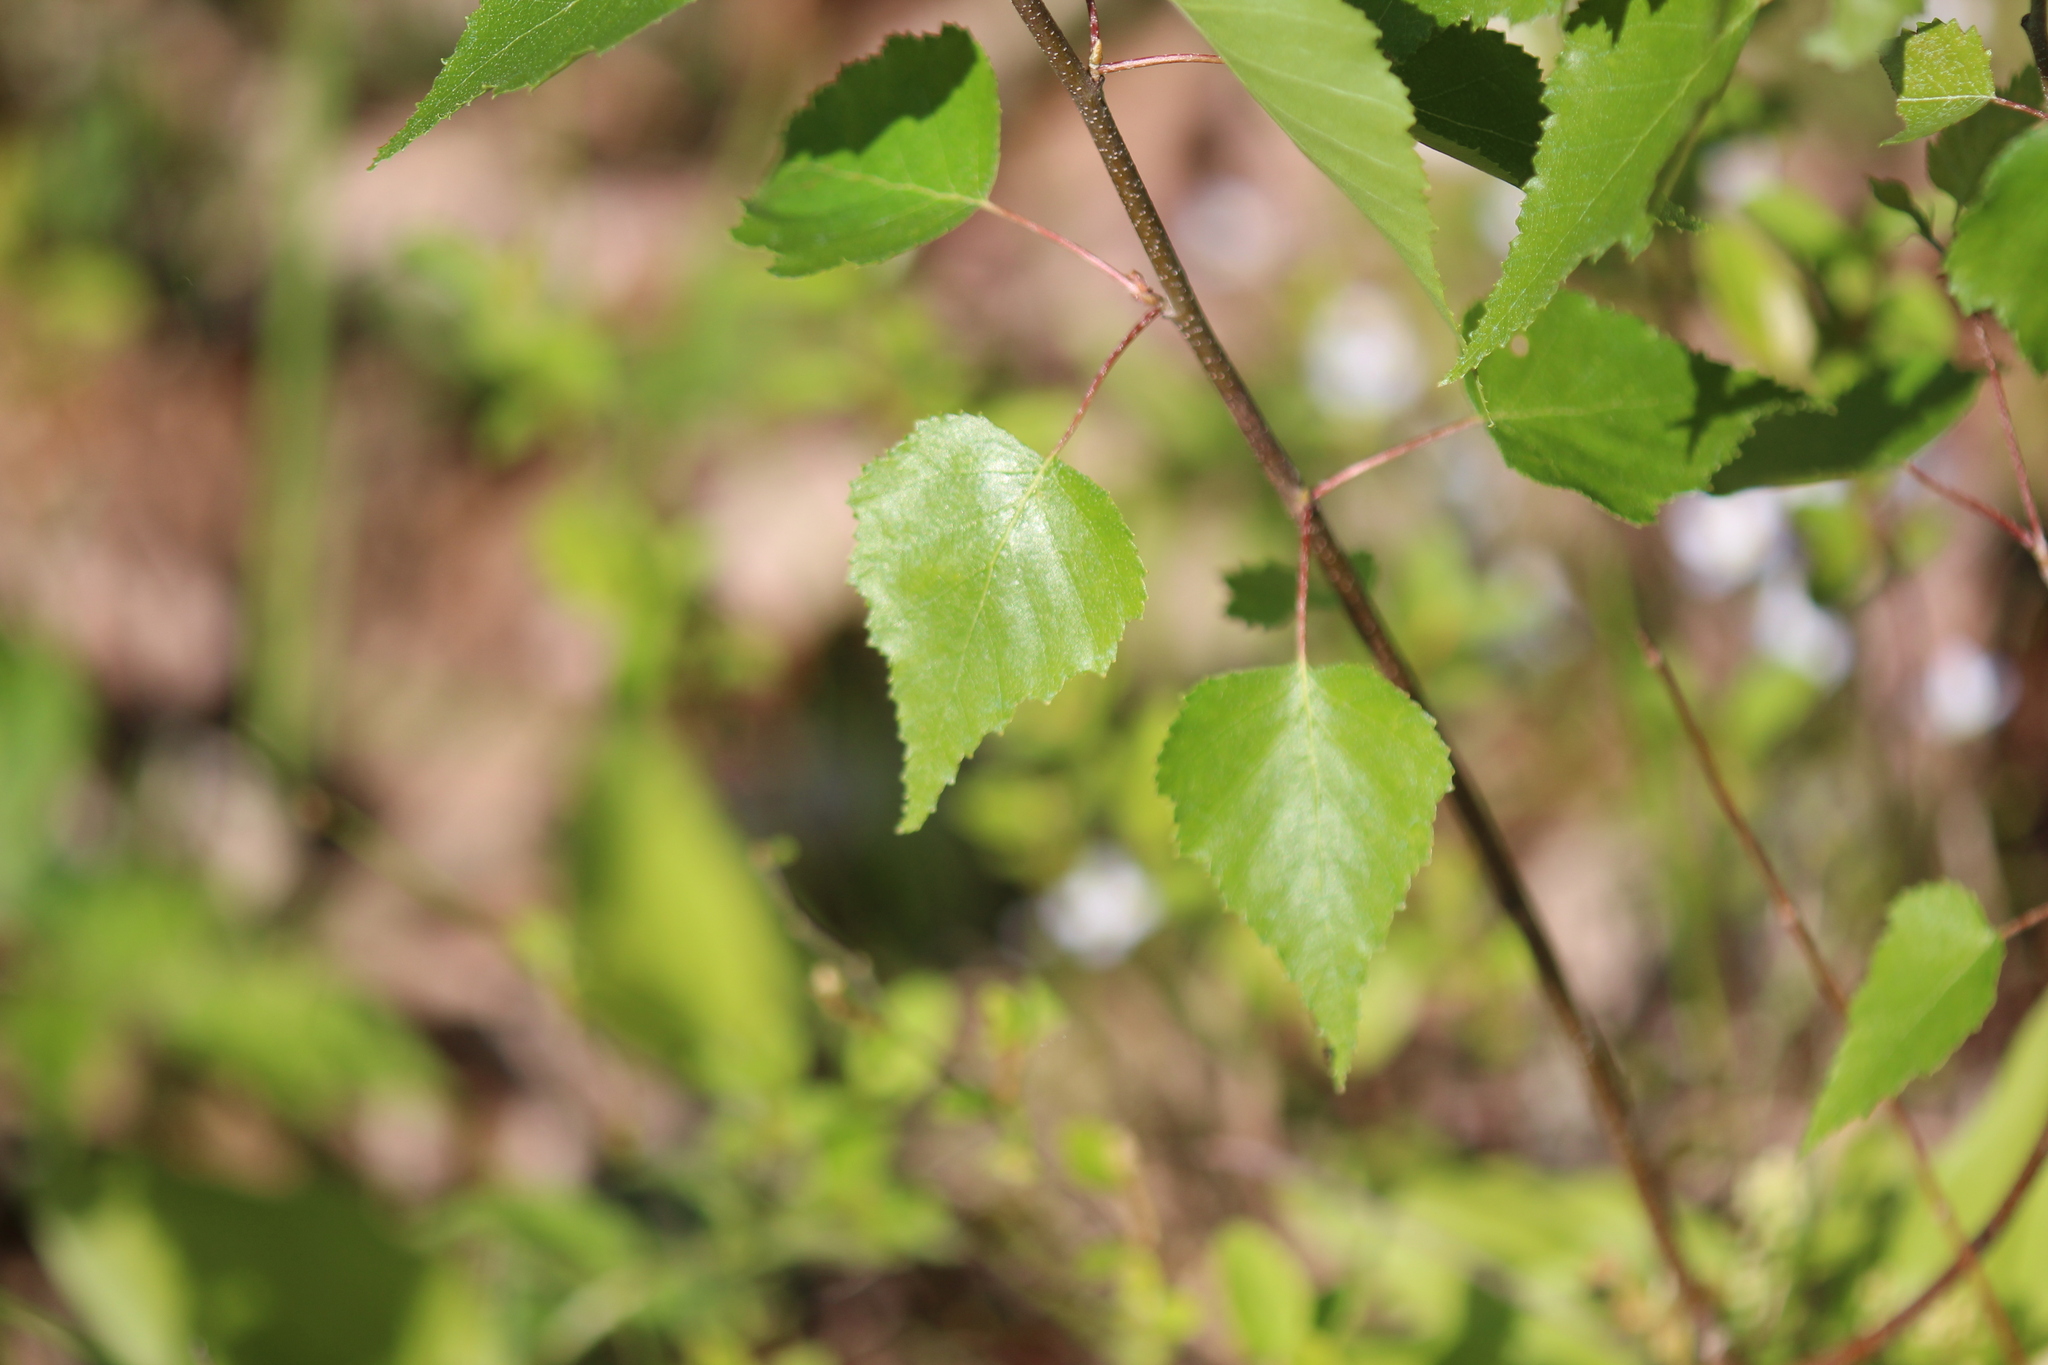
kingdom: Plantae
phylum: Tracheophyta
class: Magnoliopsida
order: Fagales
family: Betulaceae
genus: Betula
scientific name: Betula populifolia
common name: Fire birch
